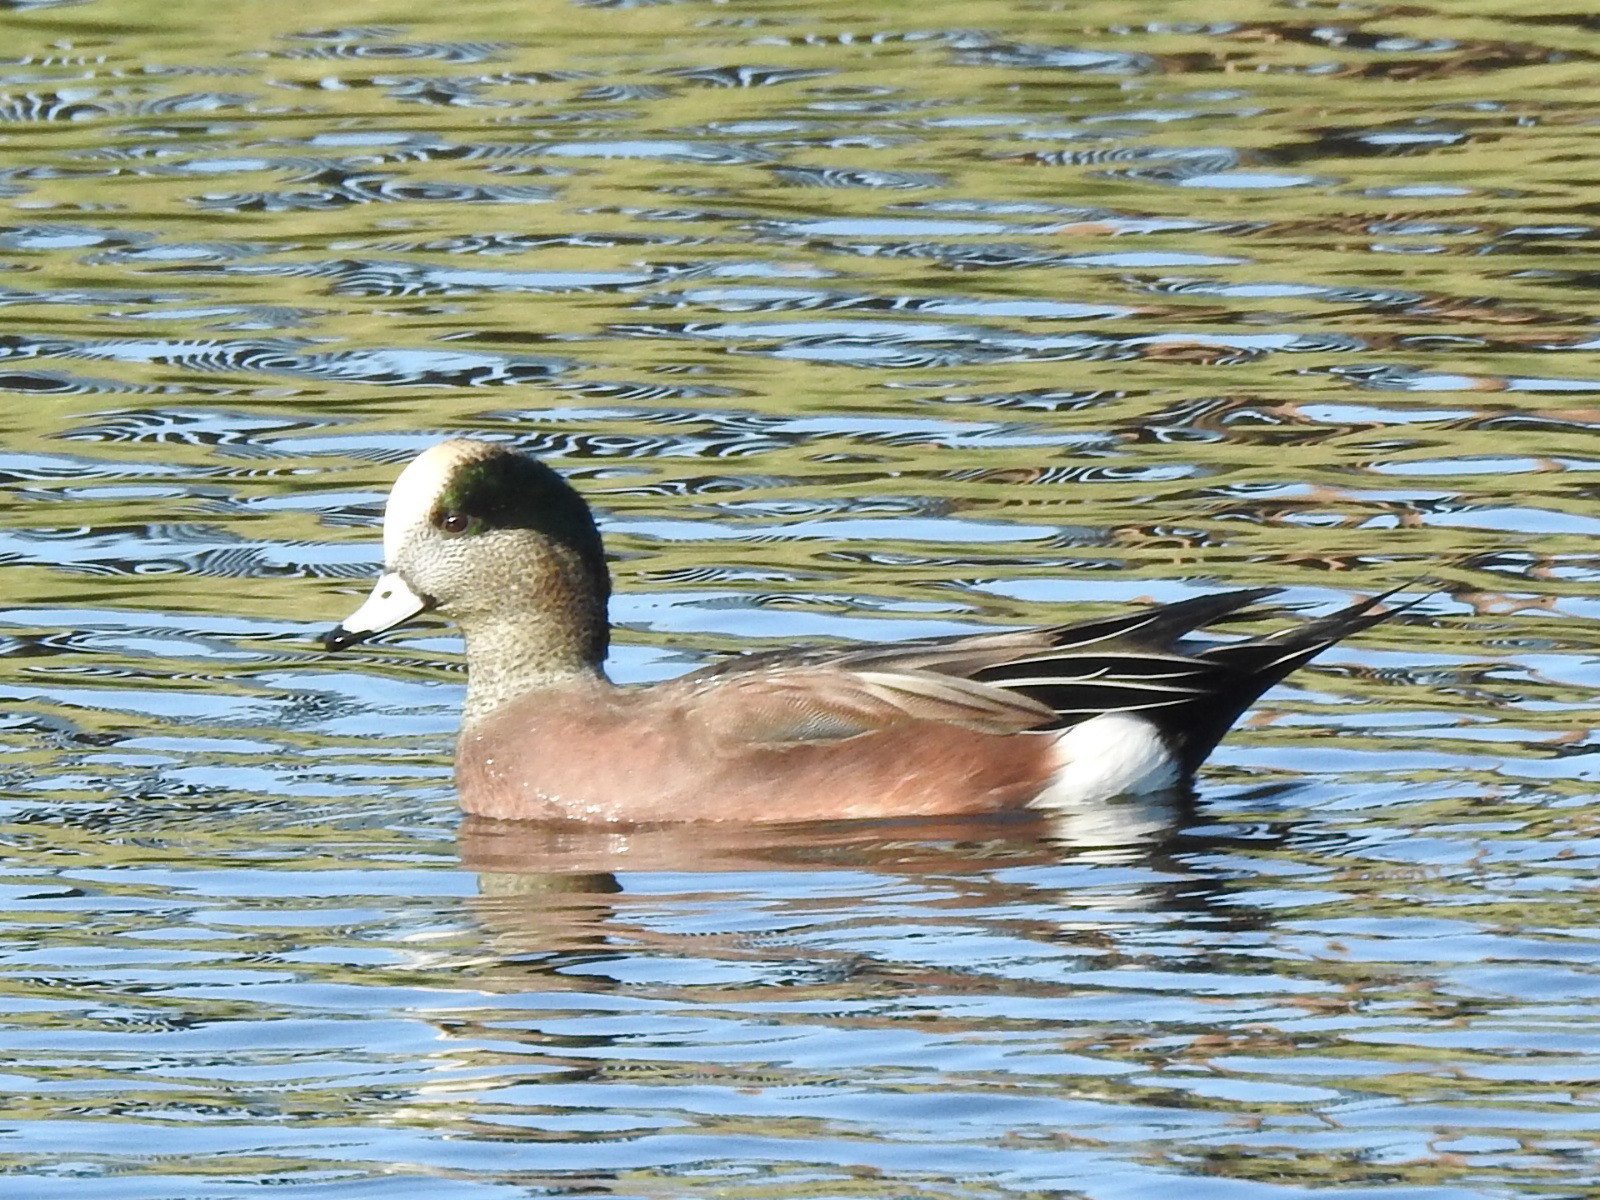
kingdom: Animalia
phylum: Chordata
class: Aves
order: Anseriformes
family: Anatidae
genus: Mareca
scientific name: Mareca americana
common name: American wigeon
